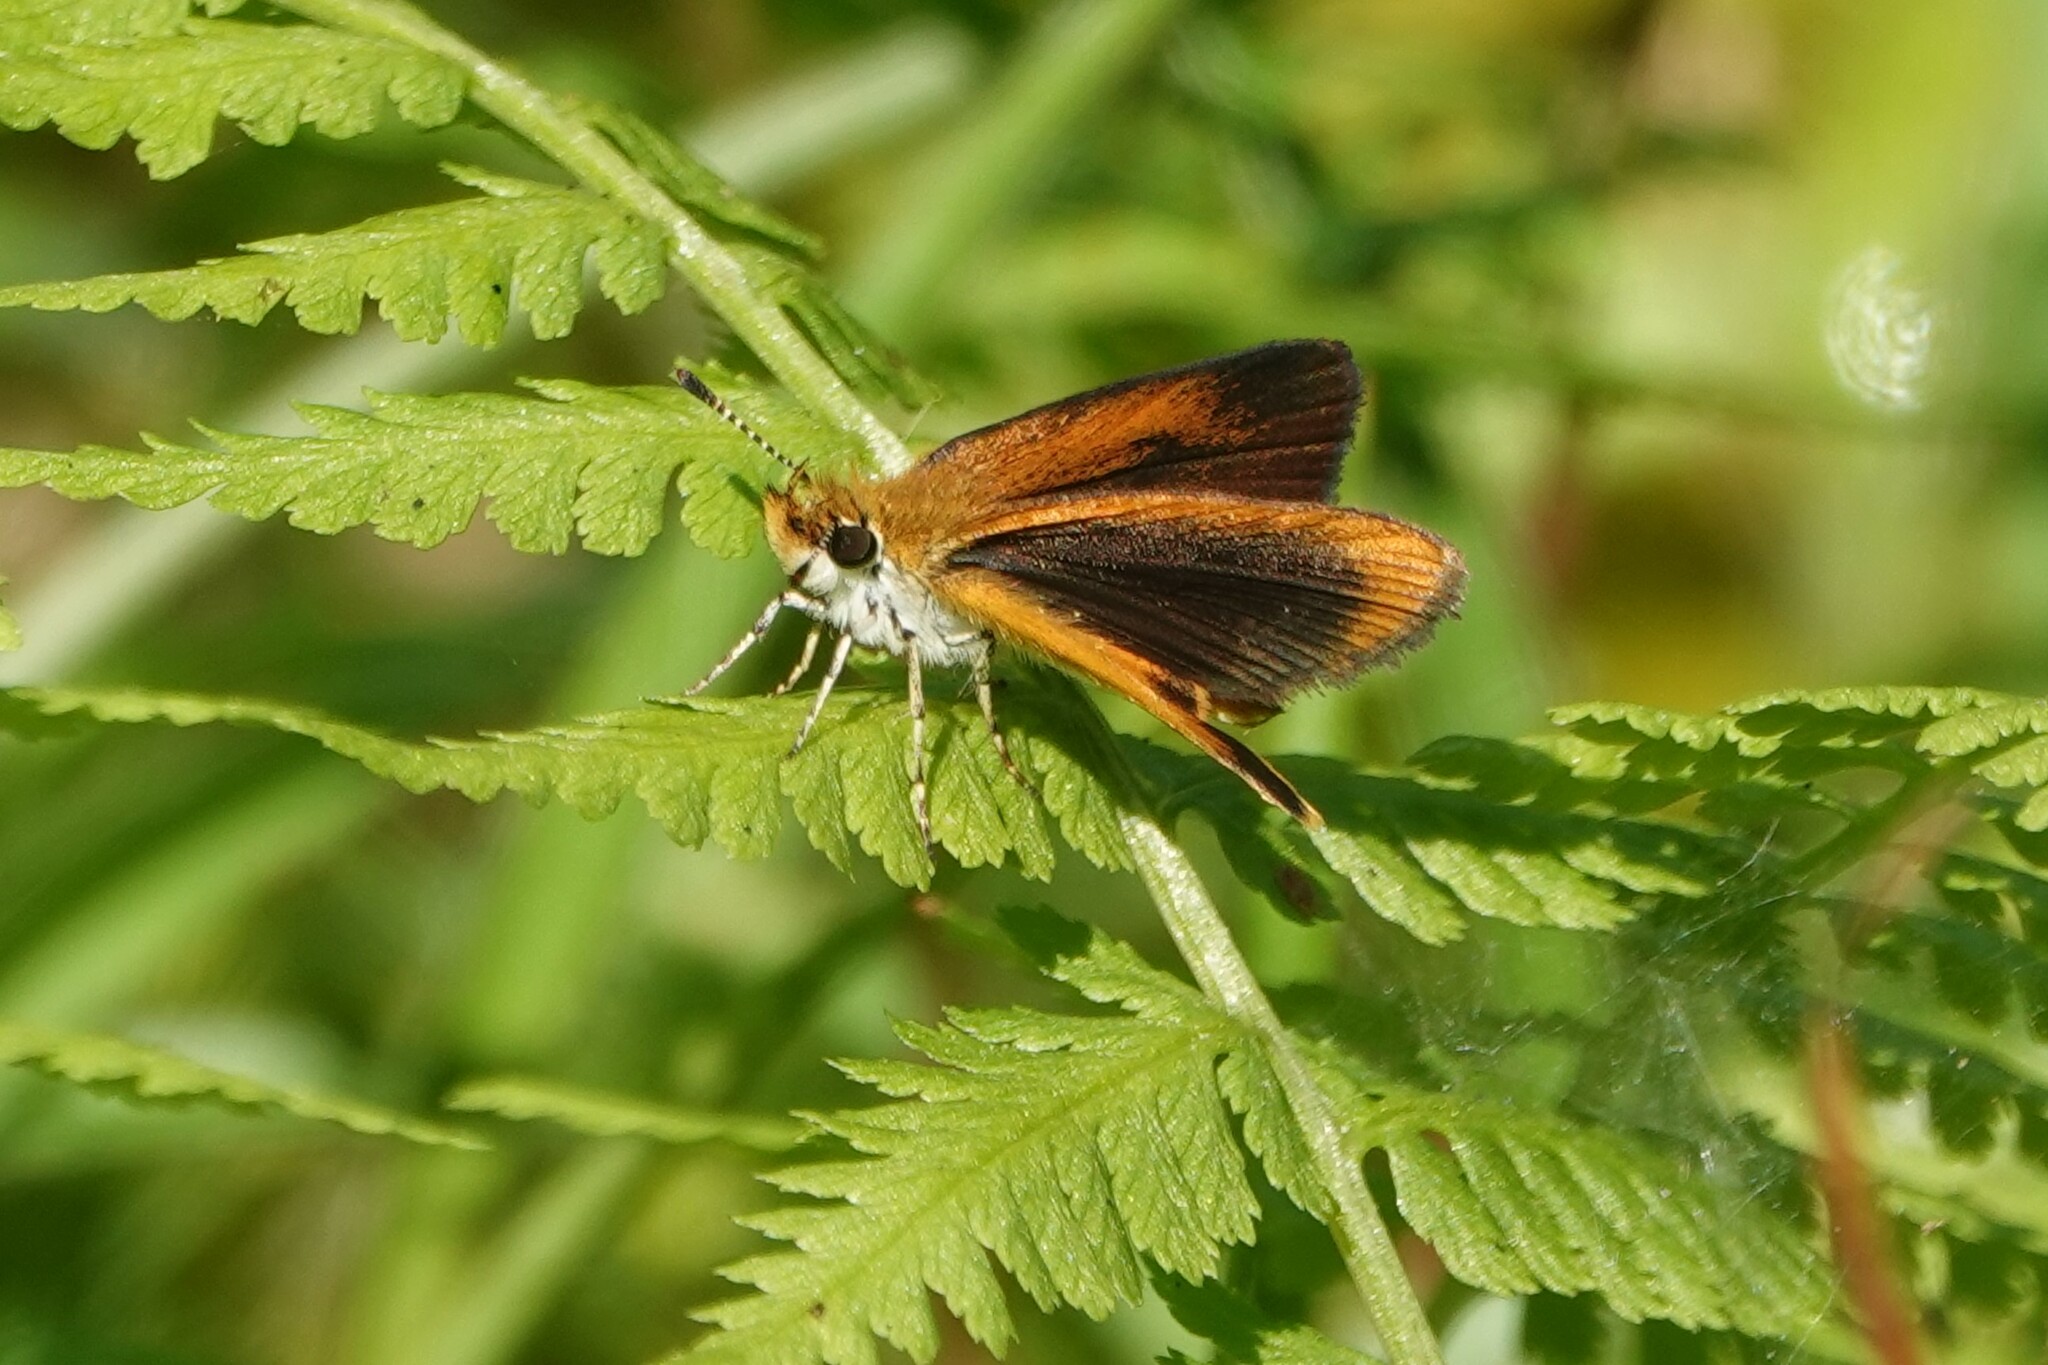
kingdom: Animalia
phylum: Arthropoda
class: Insecta
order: Lepidoptera
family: Hesperiidae
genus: Ancyloxypha
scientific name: Ancyloxypha numitor
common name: Least skipper
